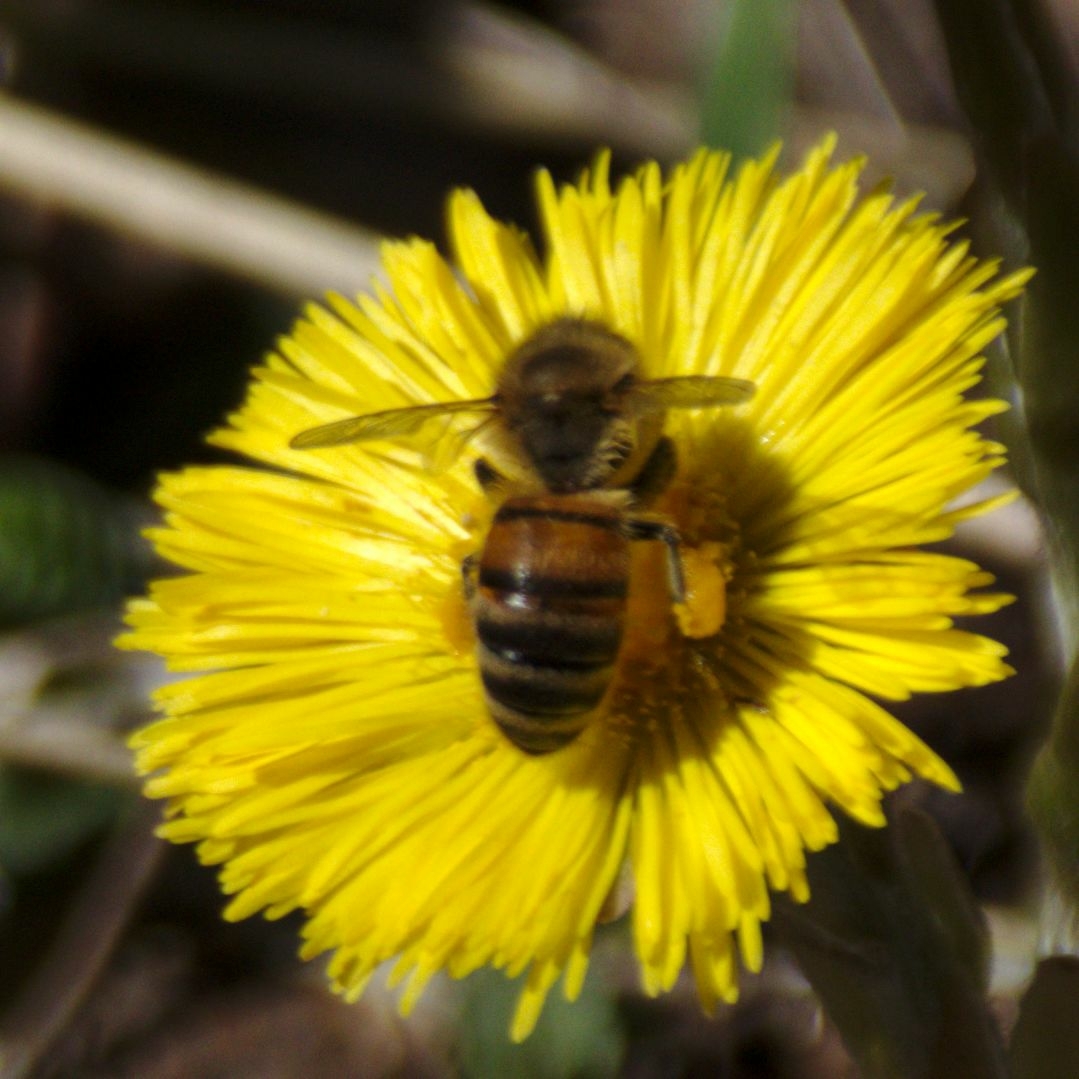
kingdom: Animalia
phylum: Arthropoda
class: Insecta
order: Hymenoptera
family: Apidae
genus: Apis
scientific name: Apis mellifera
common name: Honey bee
